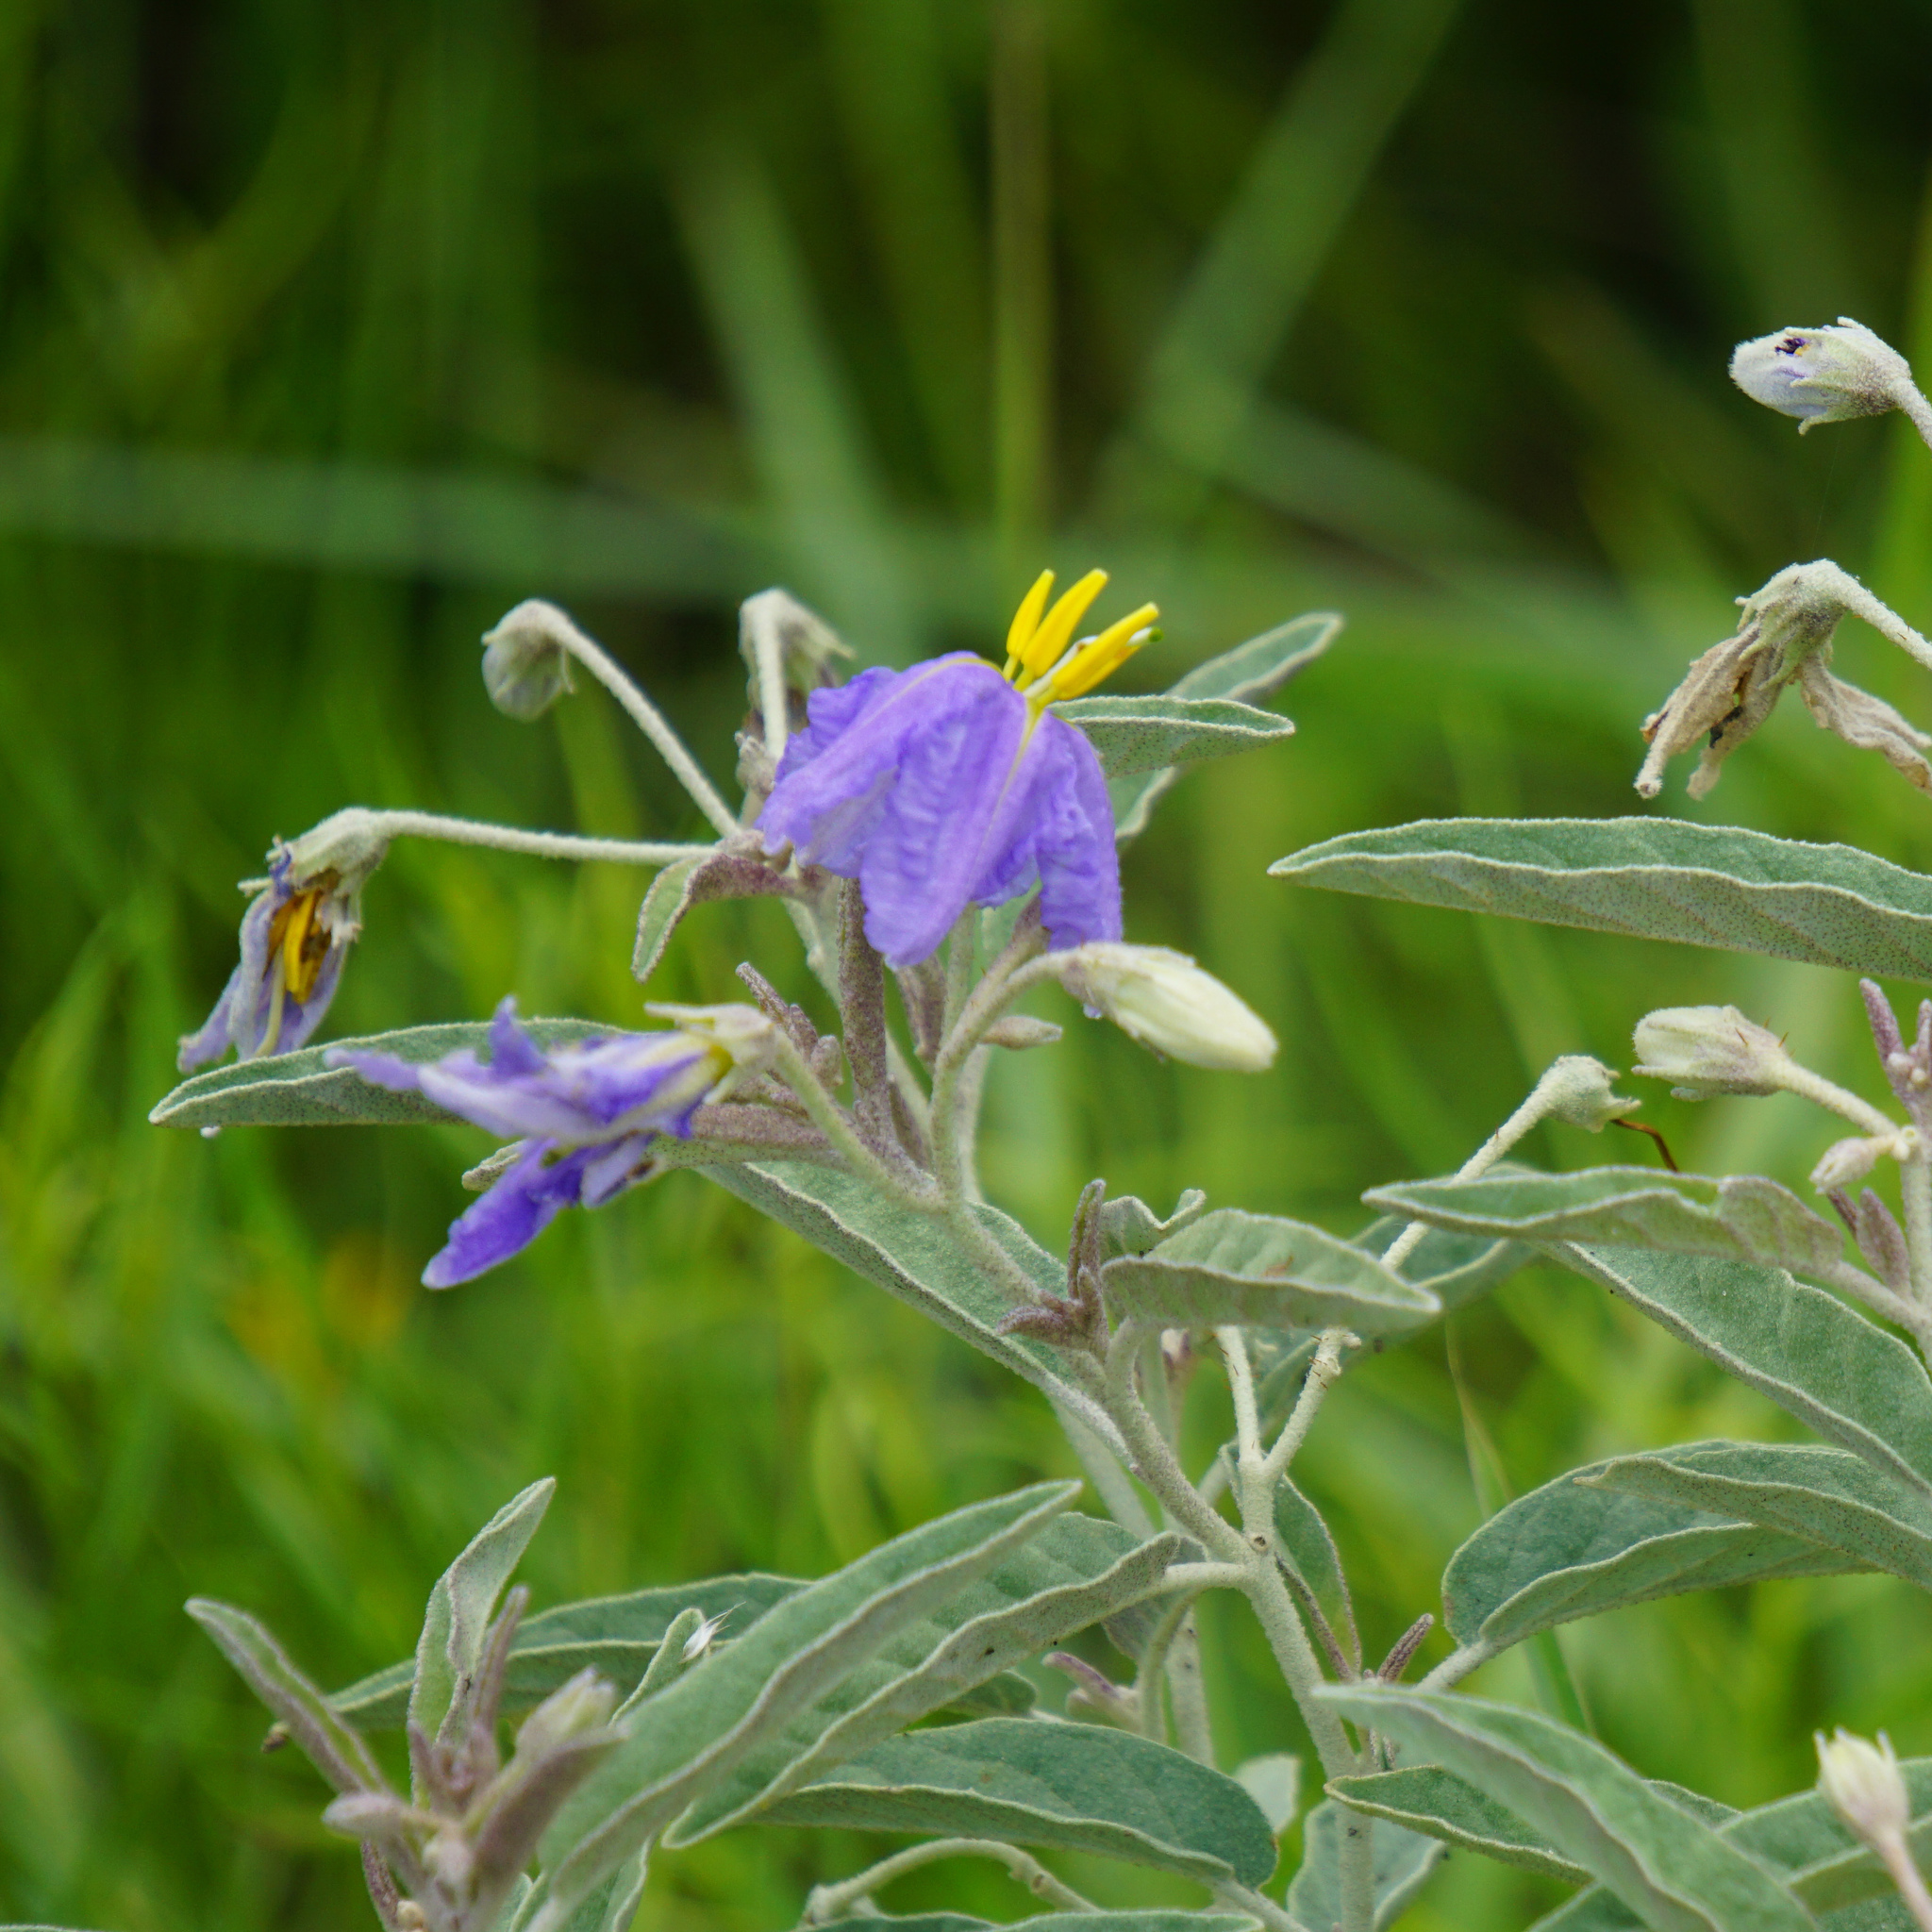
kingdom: Plantae
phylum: Tracheophyta
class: Magnoliopsida
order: Solanales
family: Solanaceae
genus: Solanum
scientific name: Solanum elaeagnifolium
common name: Silverleaf nightshade
